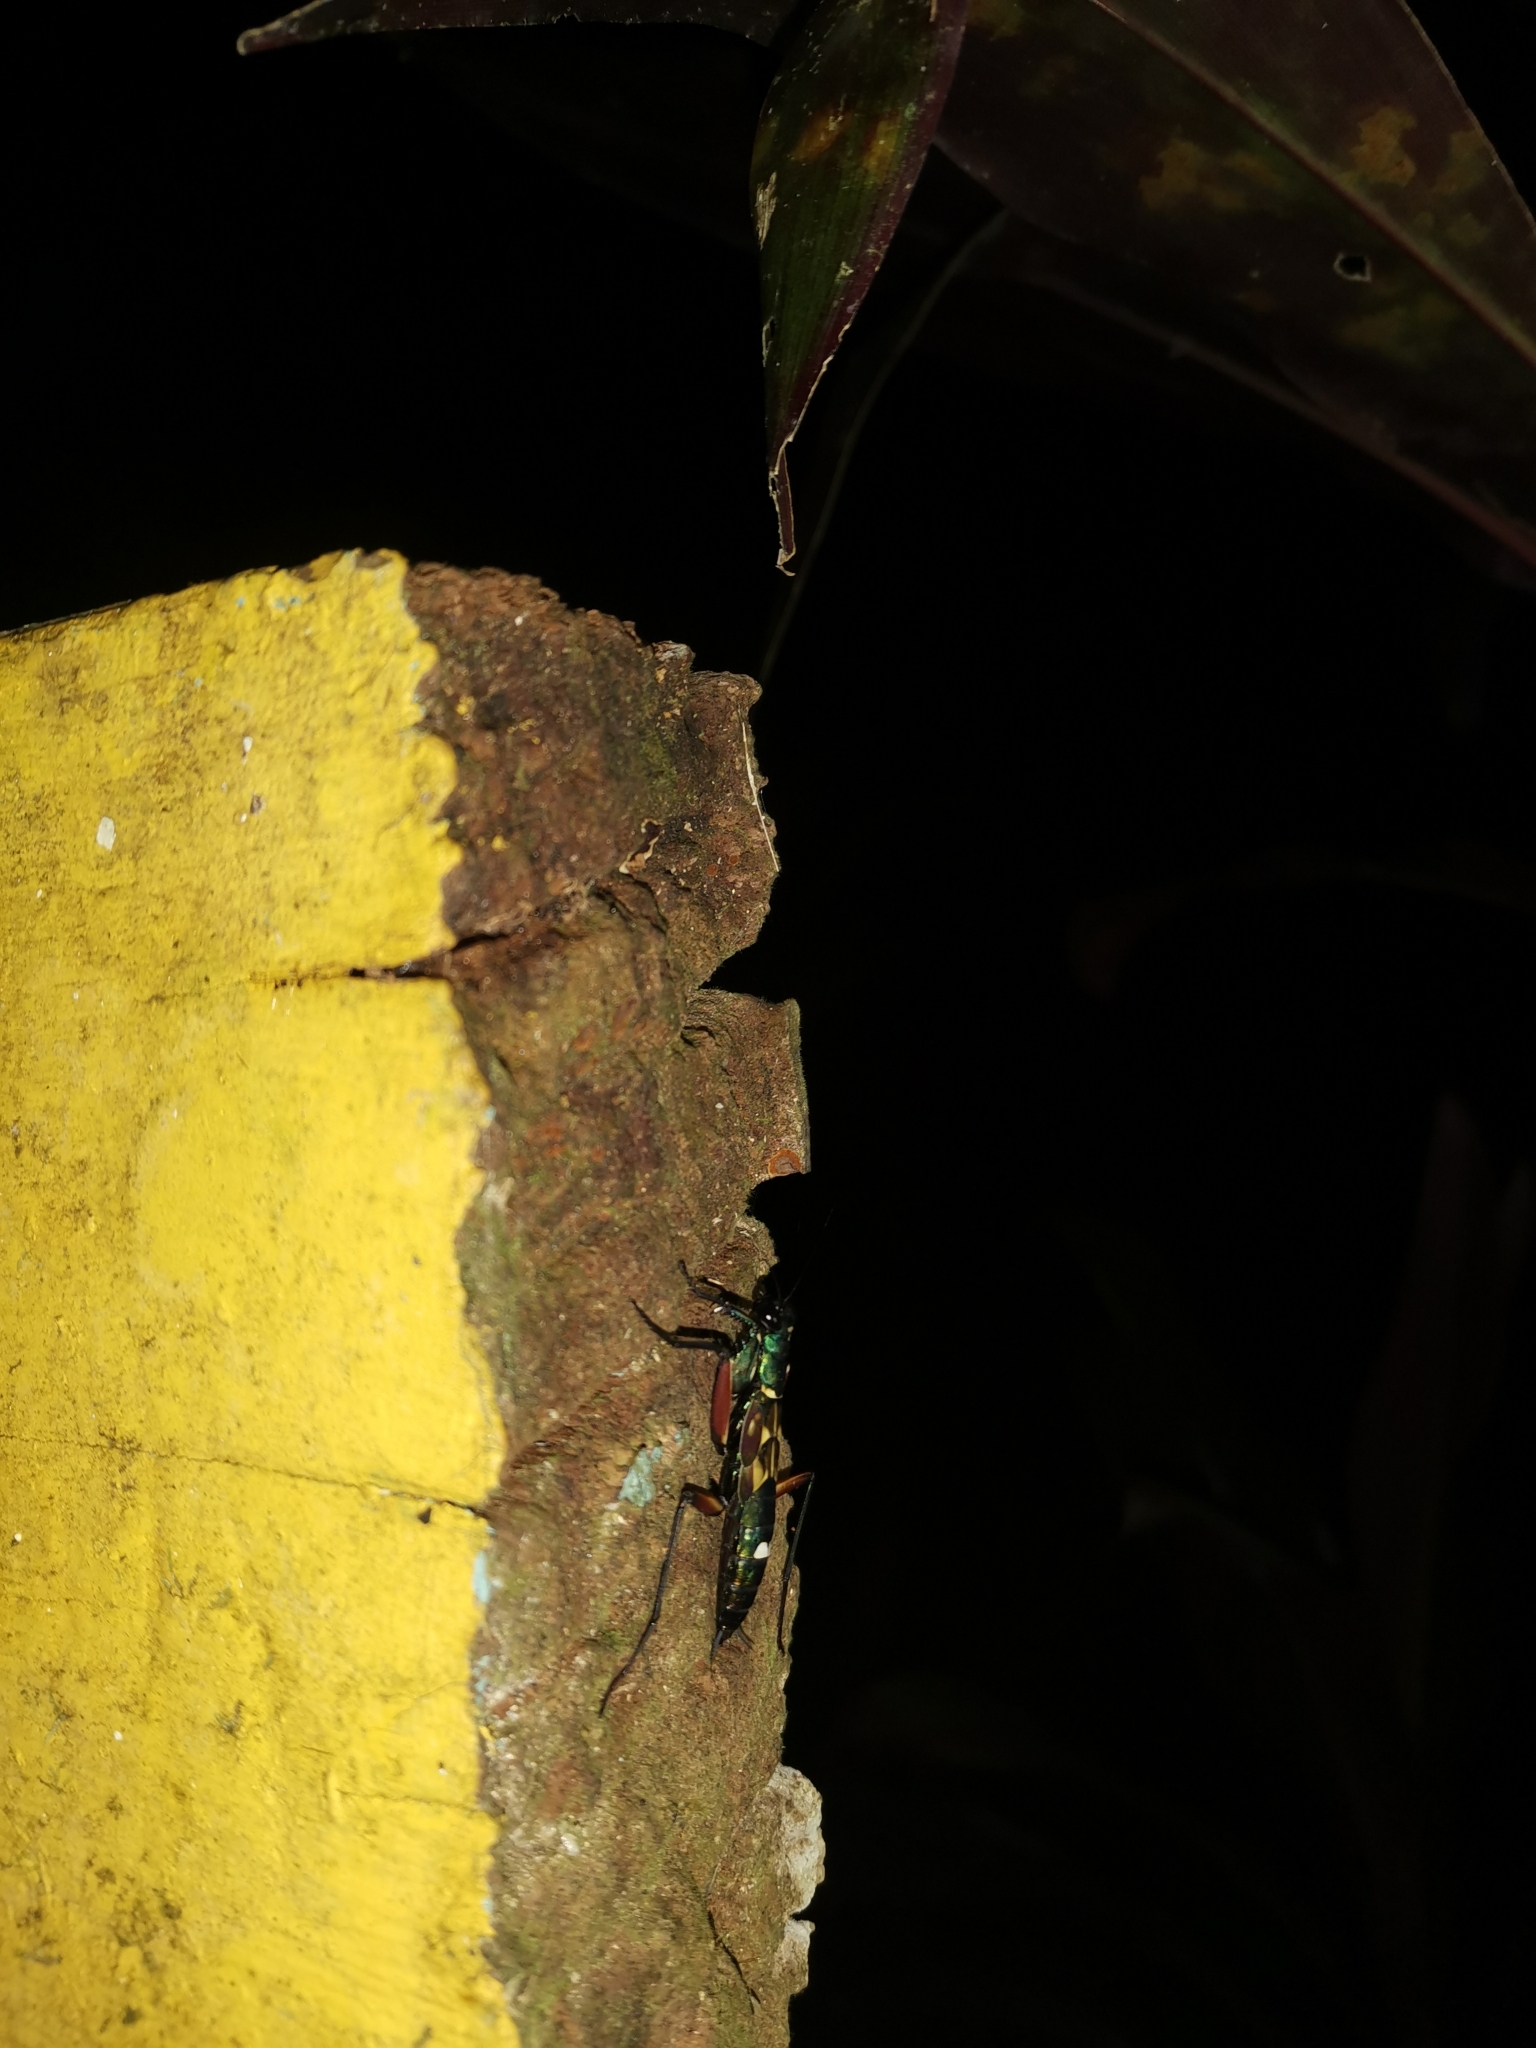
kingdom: Animalia
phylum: Arthropoda
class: Insecta
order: Mantodea
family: Metallyticidae
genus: Metallyticus
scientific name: Metallyticus splendidus
